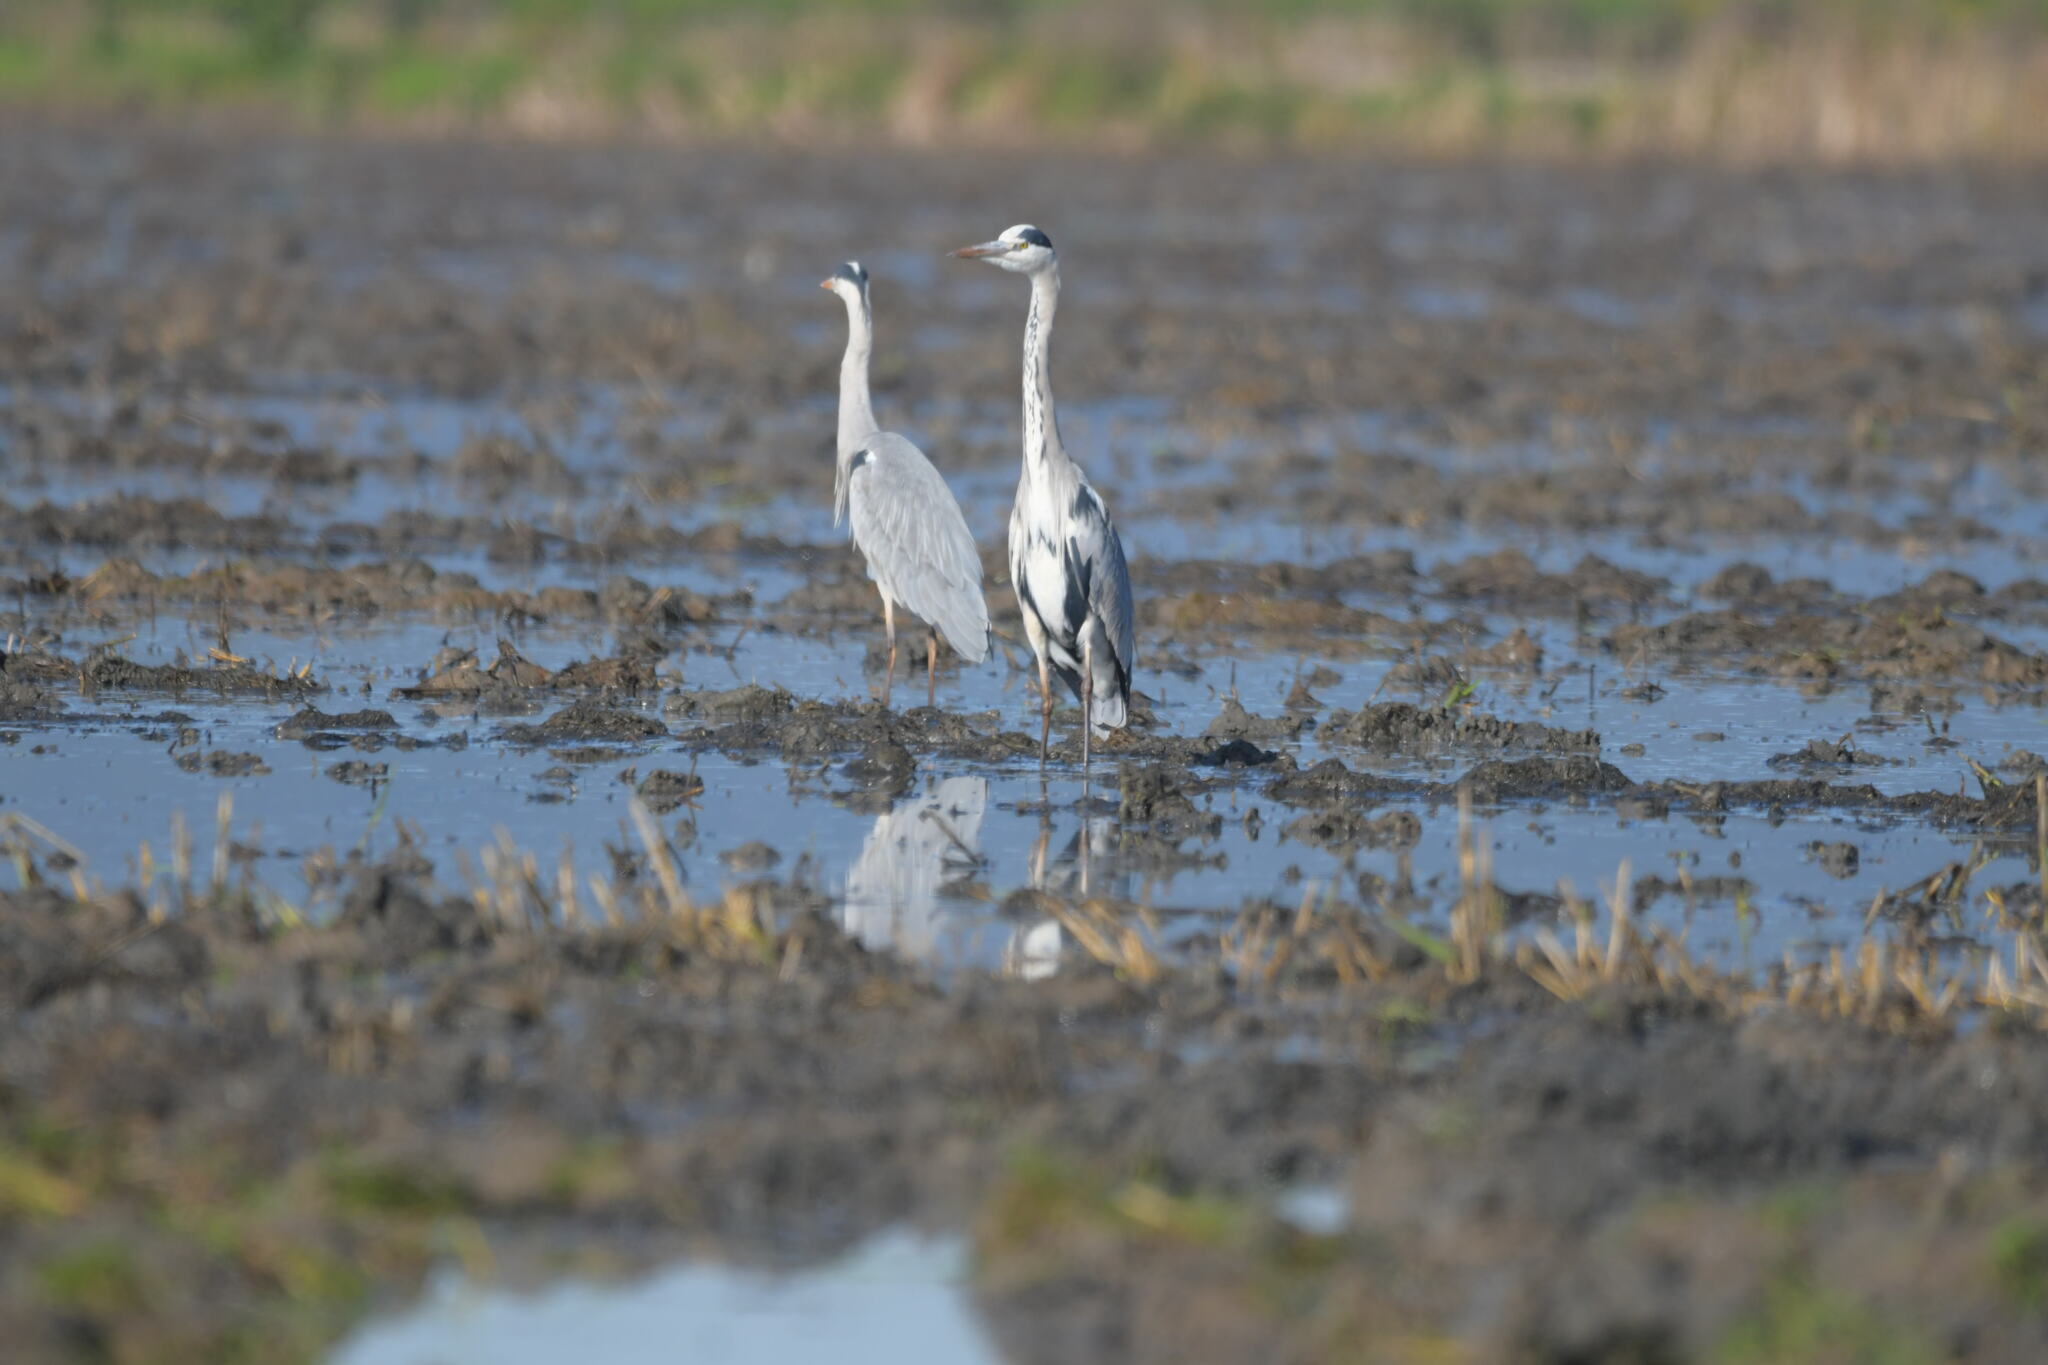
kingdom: Animalia
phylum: Chordata
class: Aves
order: Pelecaniformes
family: Ardeidae
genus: Ardea
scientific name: Ardea cinerea
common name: Grey heron
